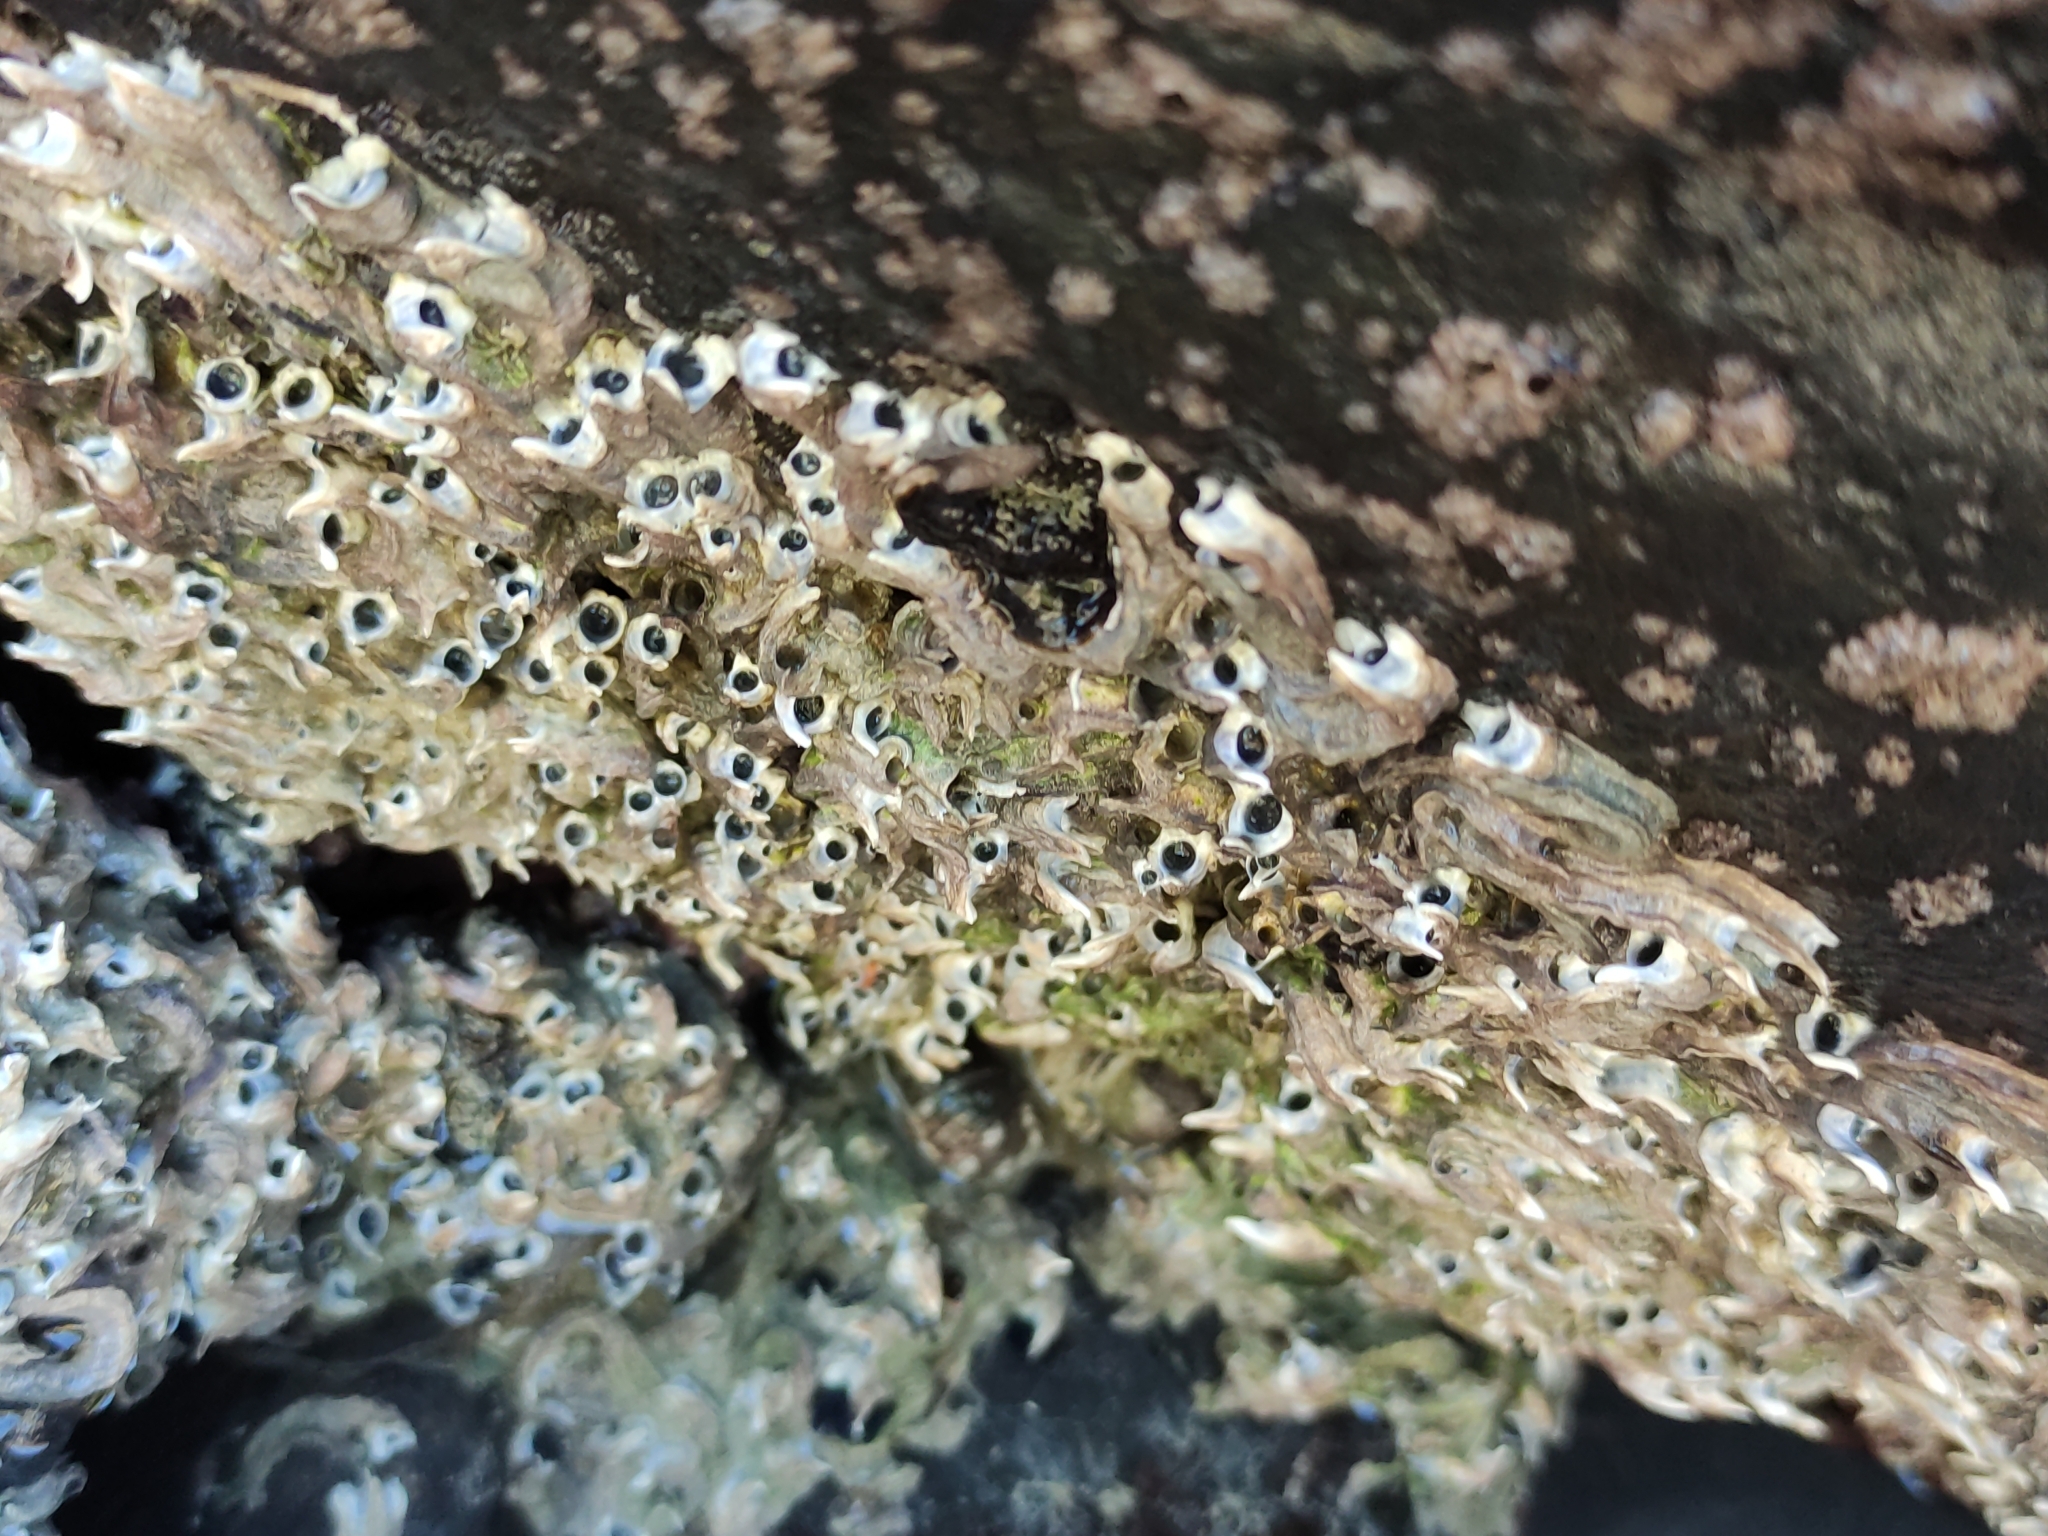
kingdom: Animalia
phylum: Annelida
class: Polychaeta
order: Sabellida
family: Serpulidae
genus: Spirobranchus
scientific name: Spirobranchus cariniferus
